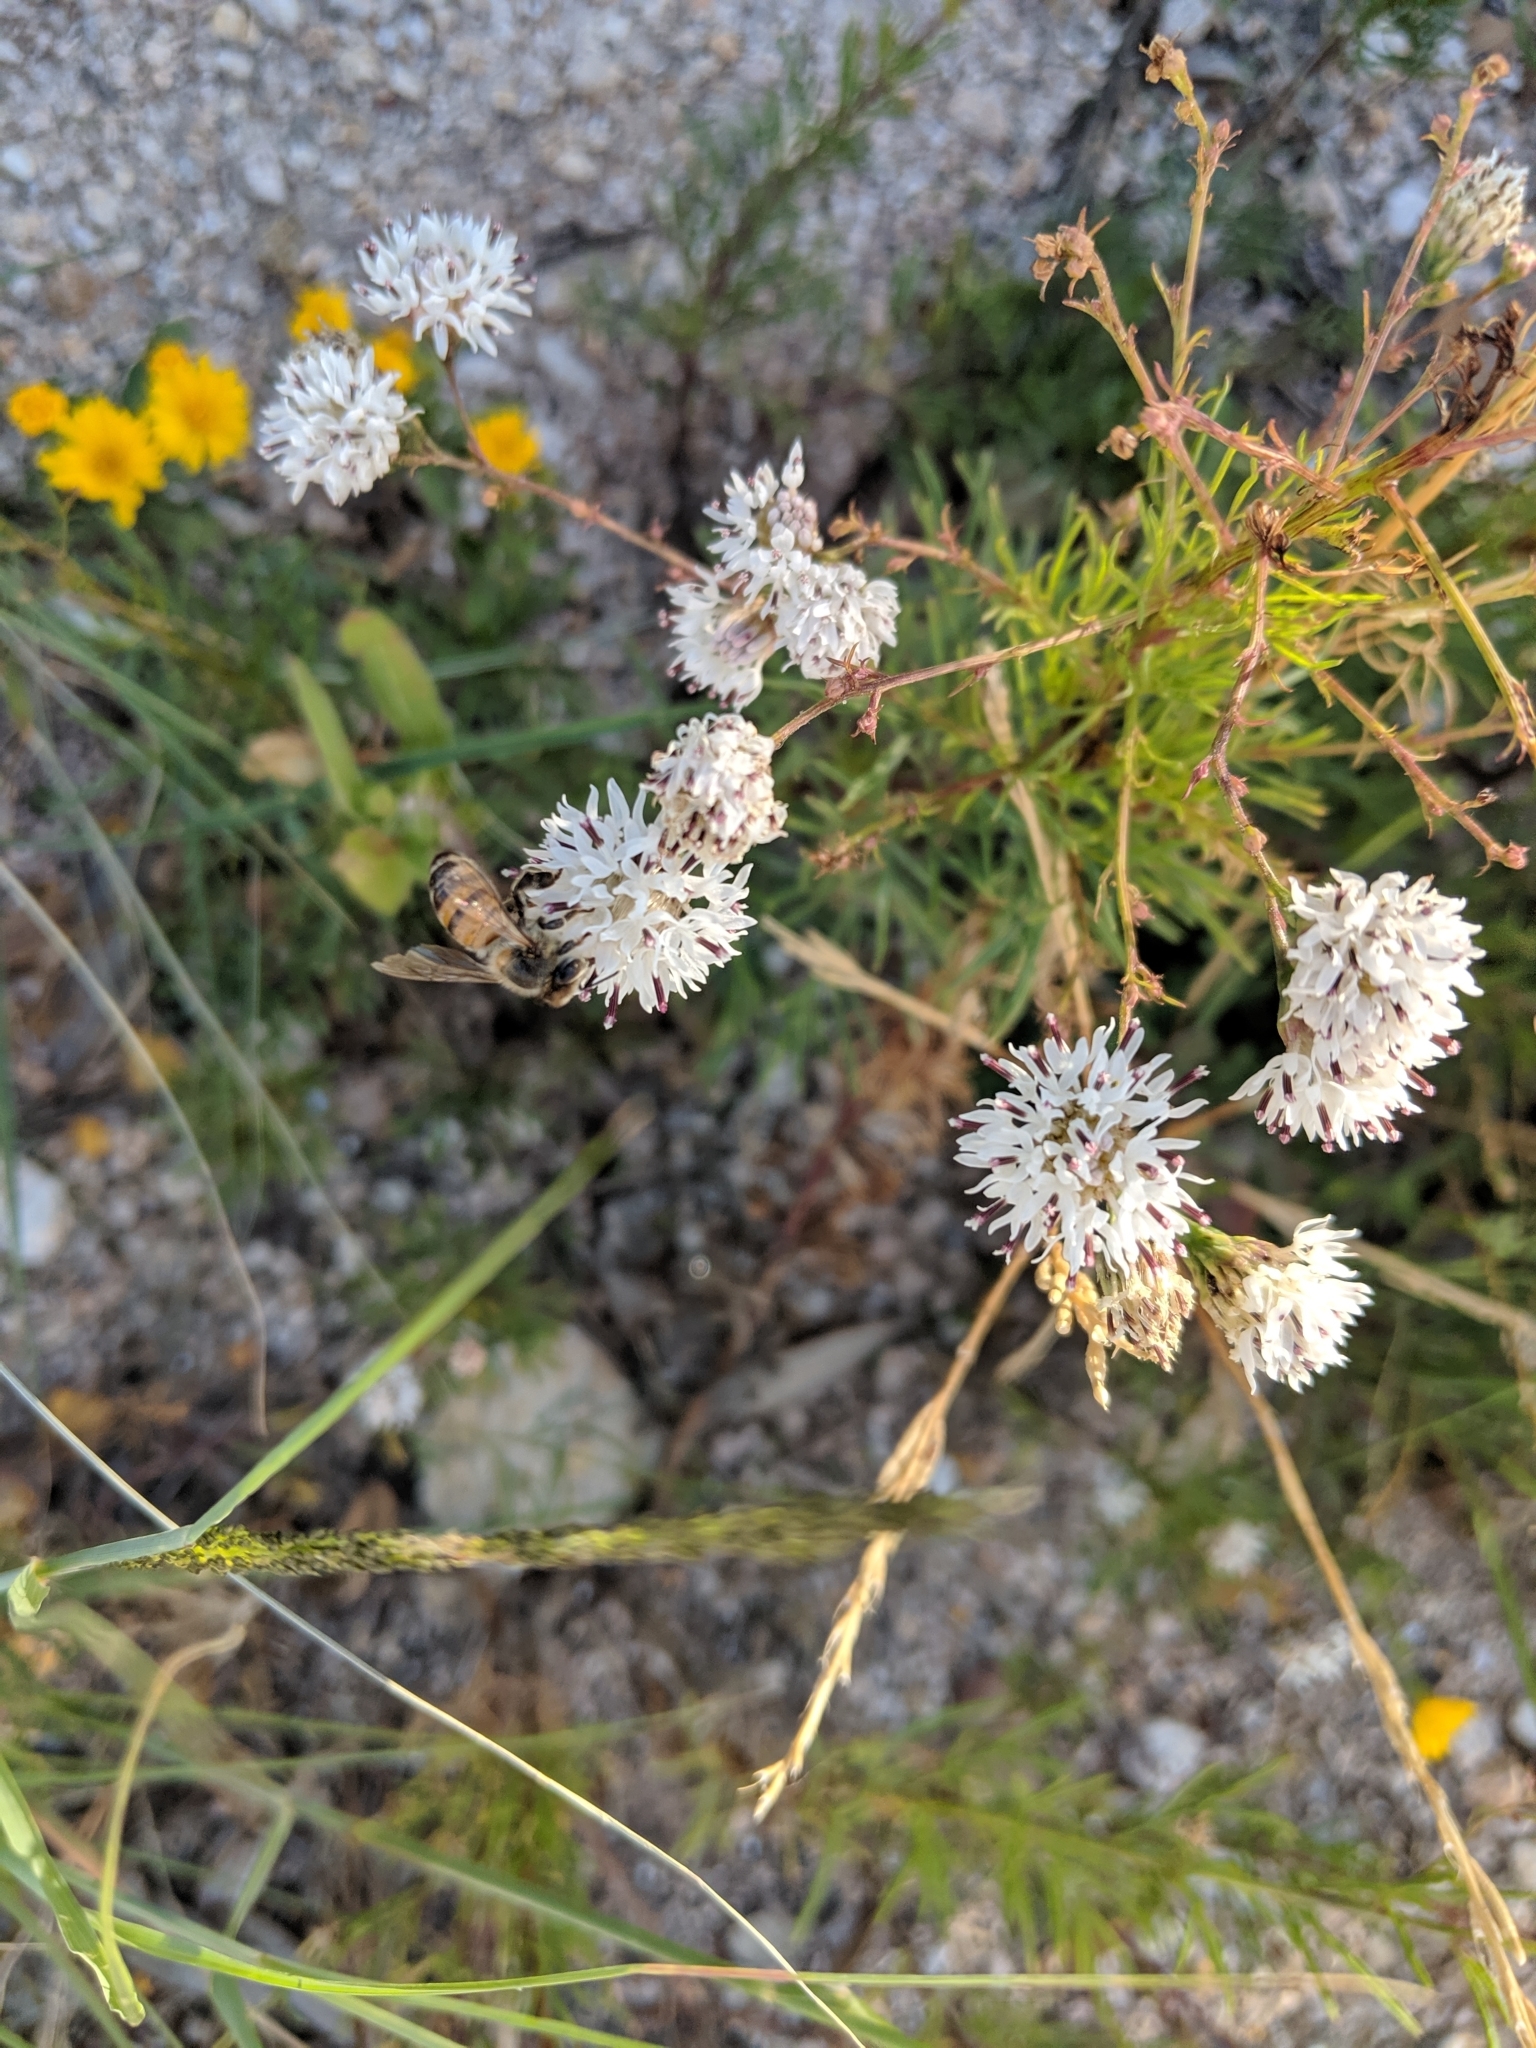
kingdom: Plantae
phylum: Tracheophyta
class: Magnoliopsida
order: Asterales
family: Asteraceae
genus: Hymenothrix
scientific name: Hymenothrix wrightii
